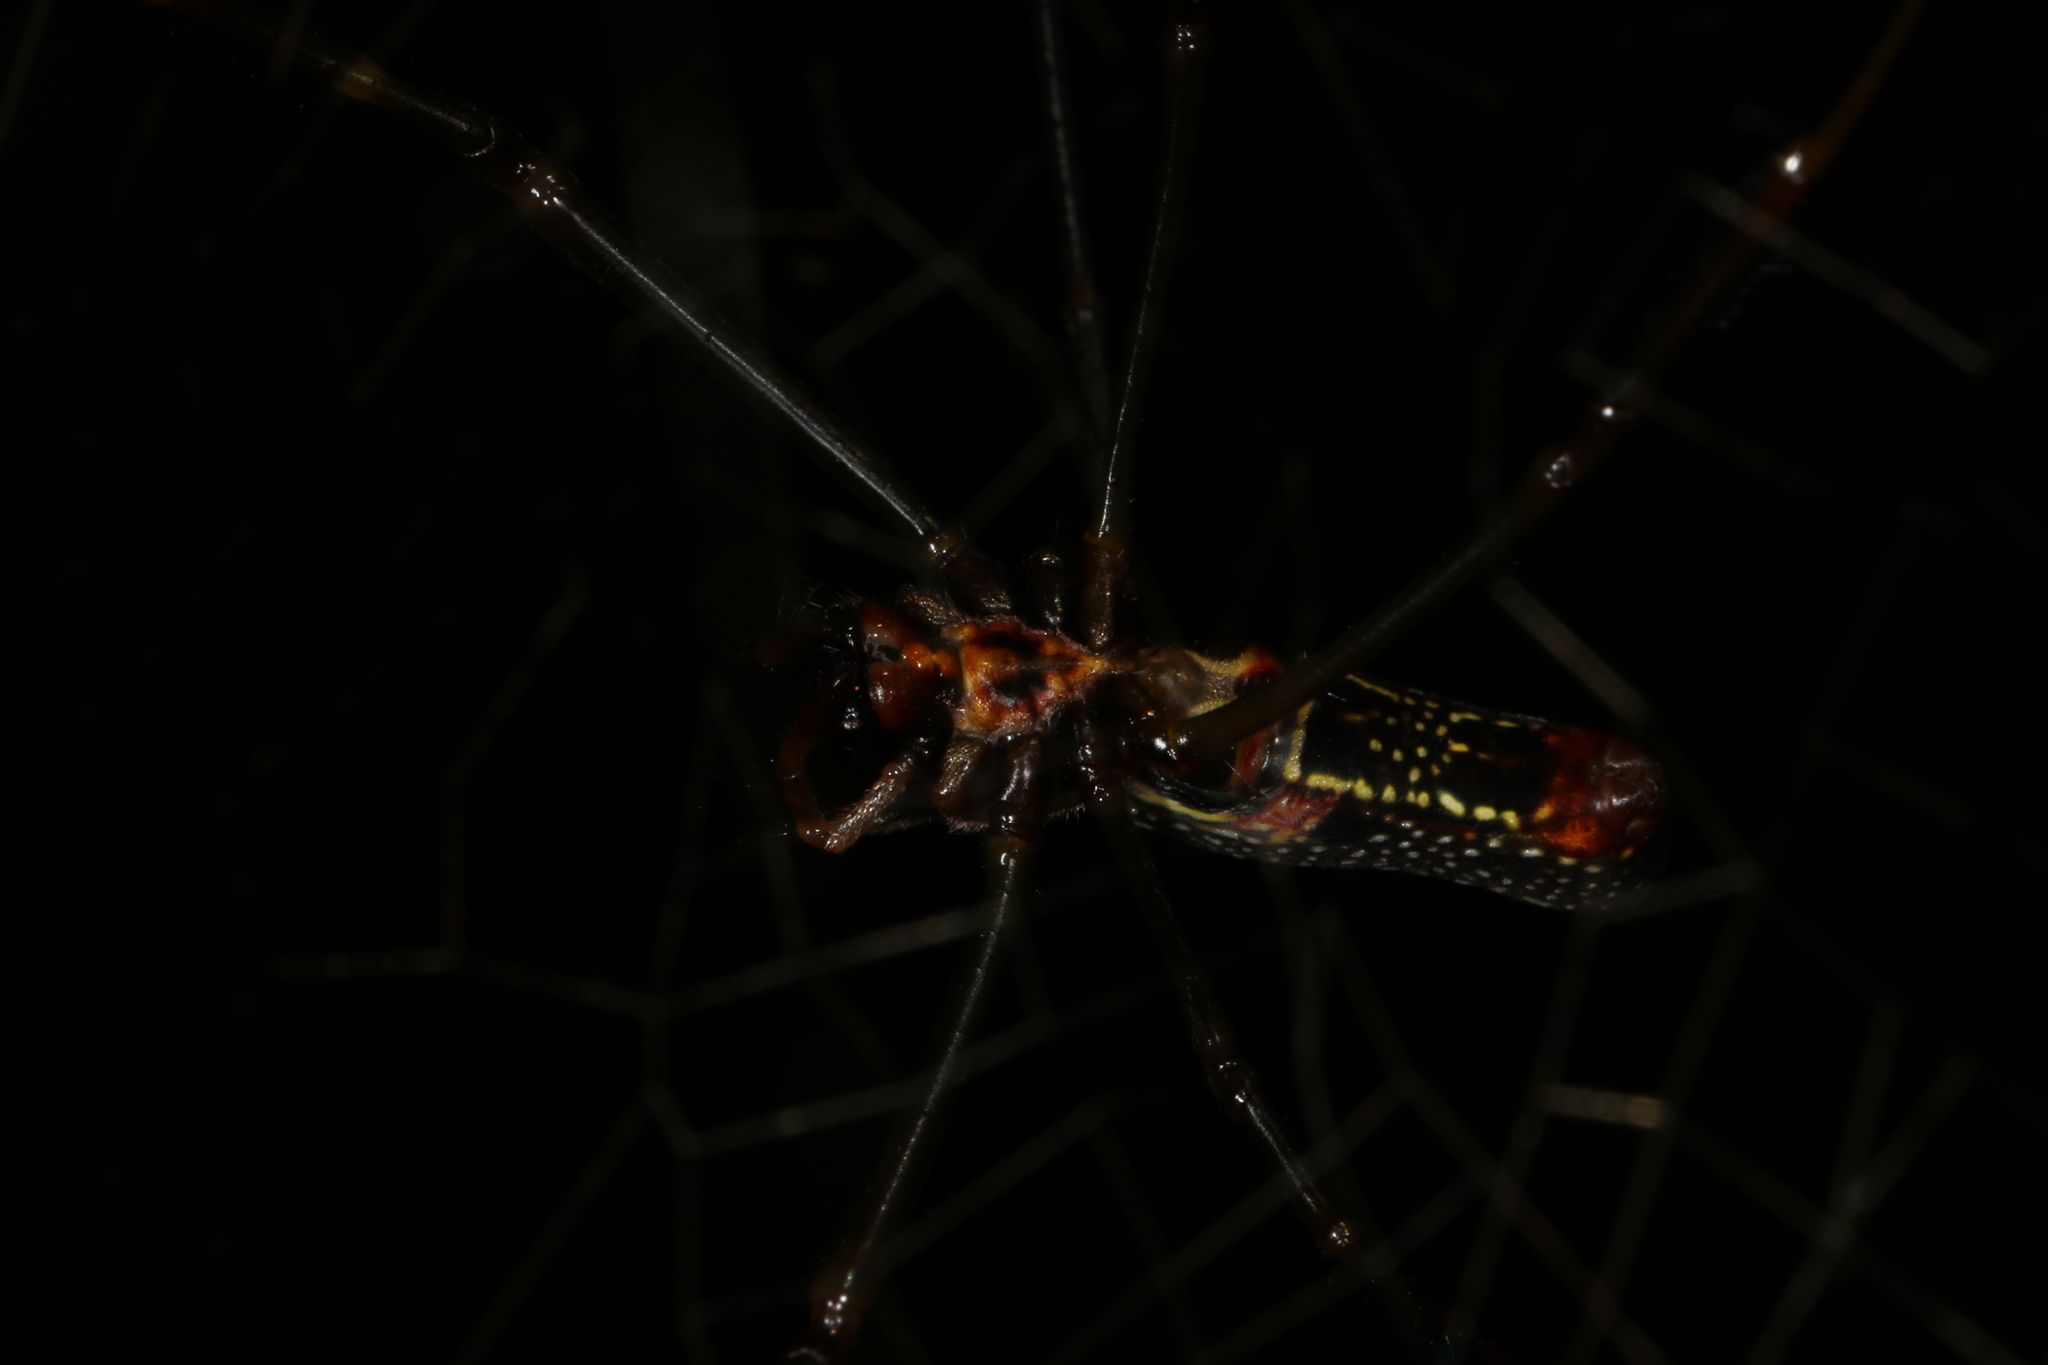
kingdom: Animalia
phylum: Arthropoda
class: Arachnida
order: Araneae
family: Araneidae
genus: Trichonephila
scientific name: Trichonephila clavipes
